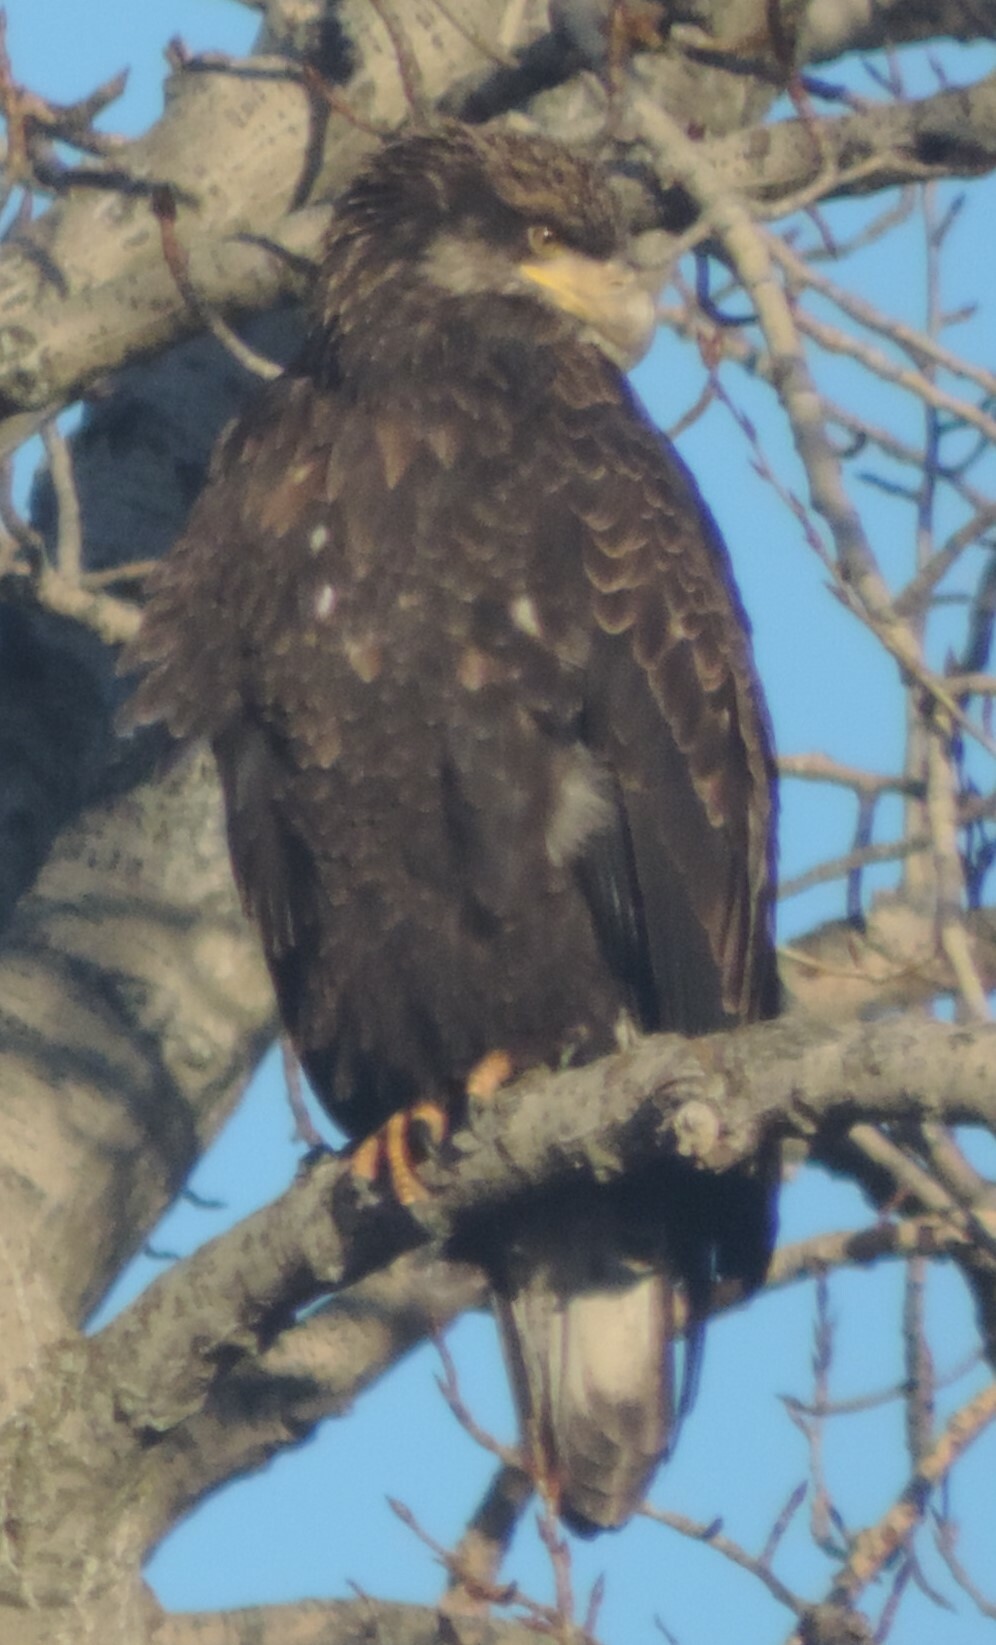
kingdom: Animalia
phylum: Chordata
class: Aves
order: Accipitriformes
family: Accipitridae
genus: Haliaeetus
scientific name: Haliaeetus leucocephalus
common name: Bald eagle
